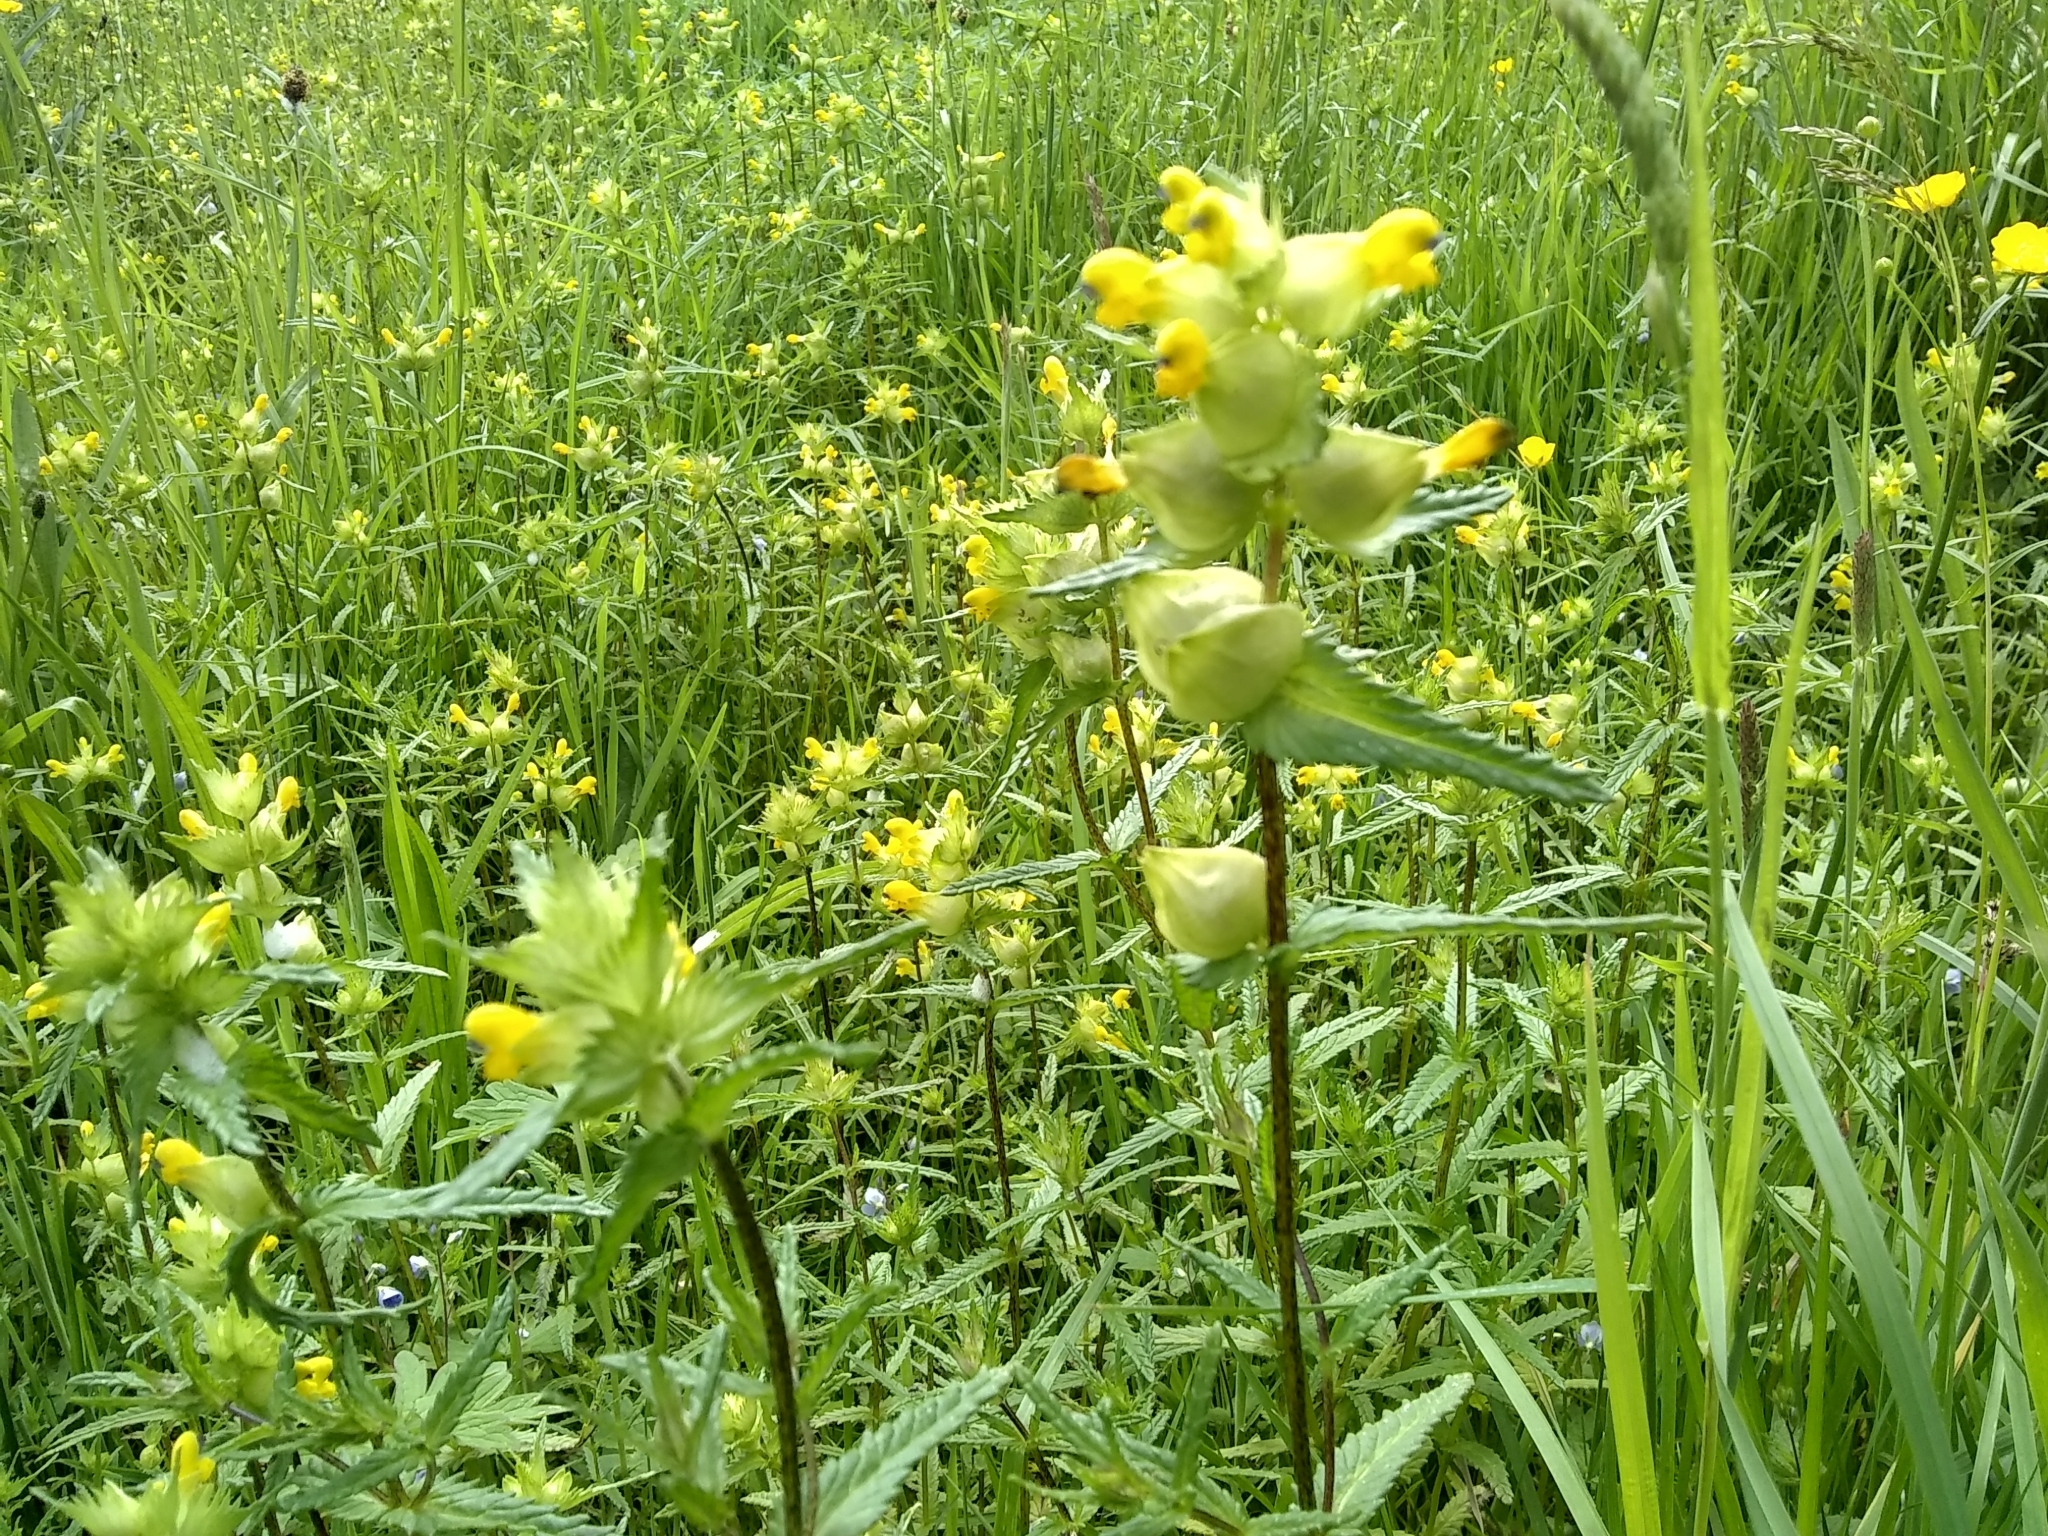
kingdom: Plantae
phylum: Tracheophyta
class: Magnoliopsida
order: Lamiales
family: Orobanchaceae
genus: Rhinanthus
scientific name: Rhinanthus minor
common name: Yellow-rattle
